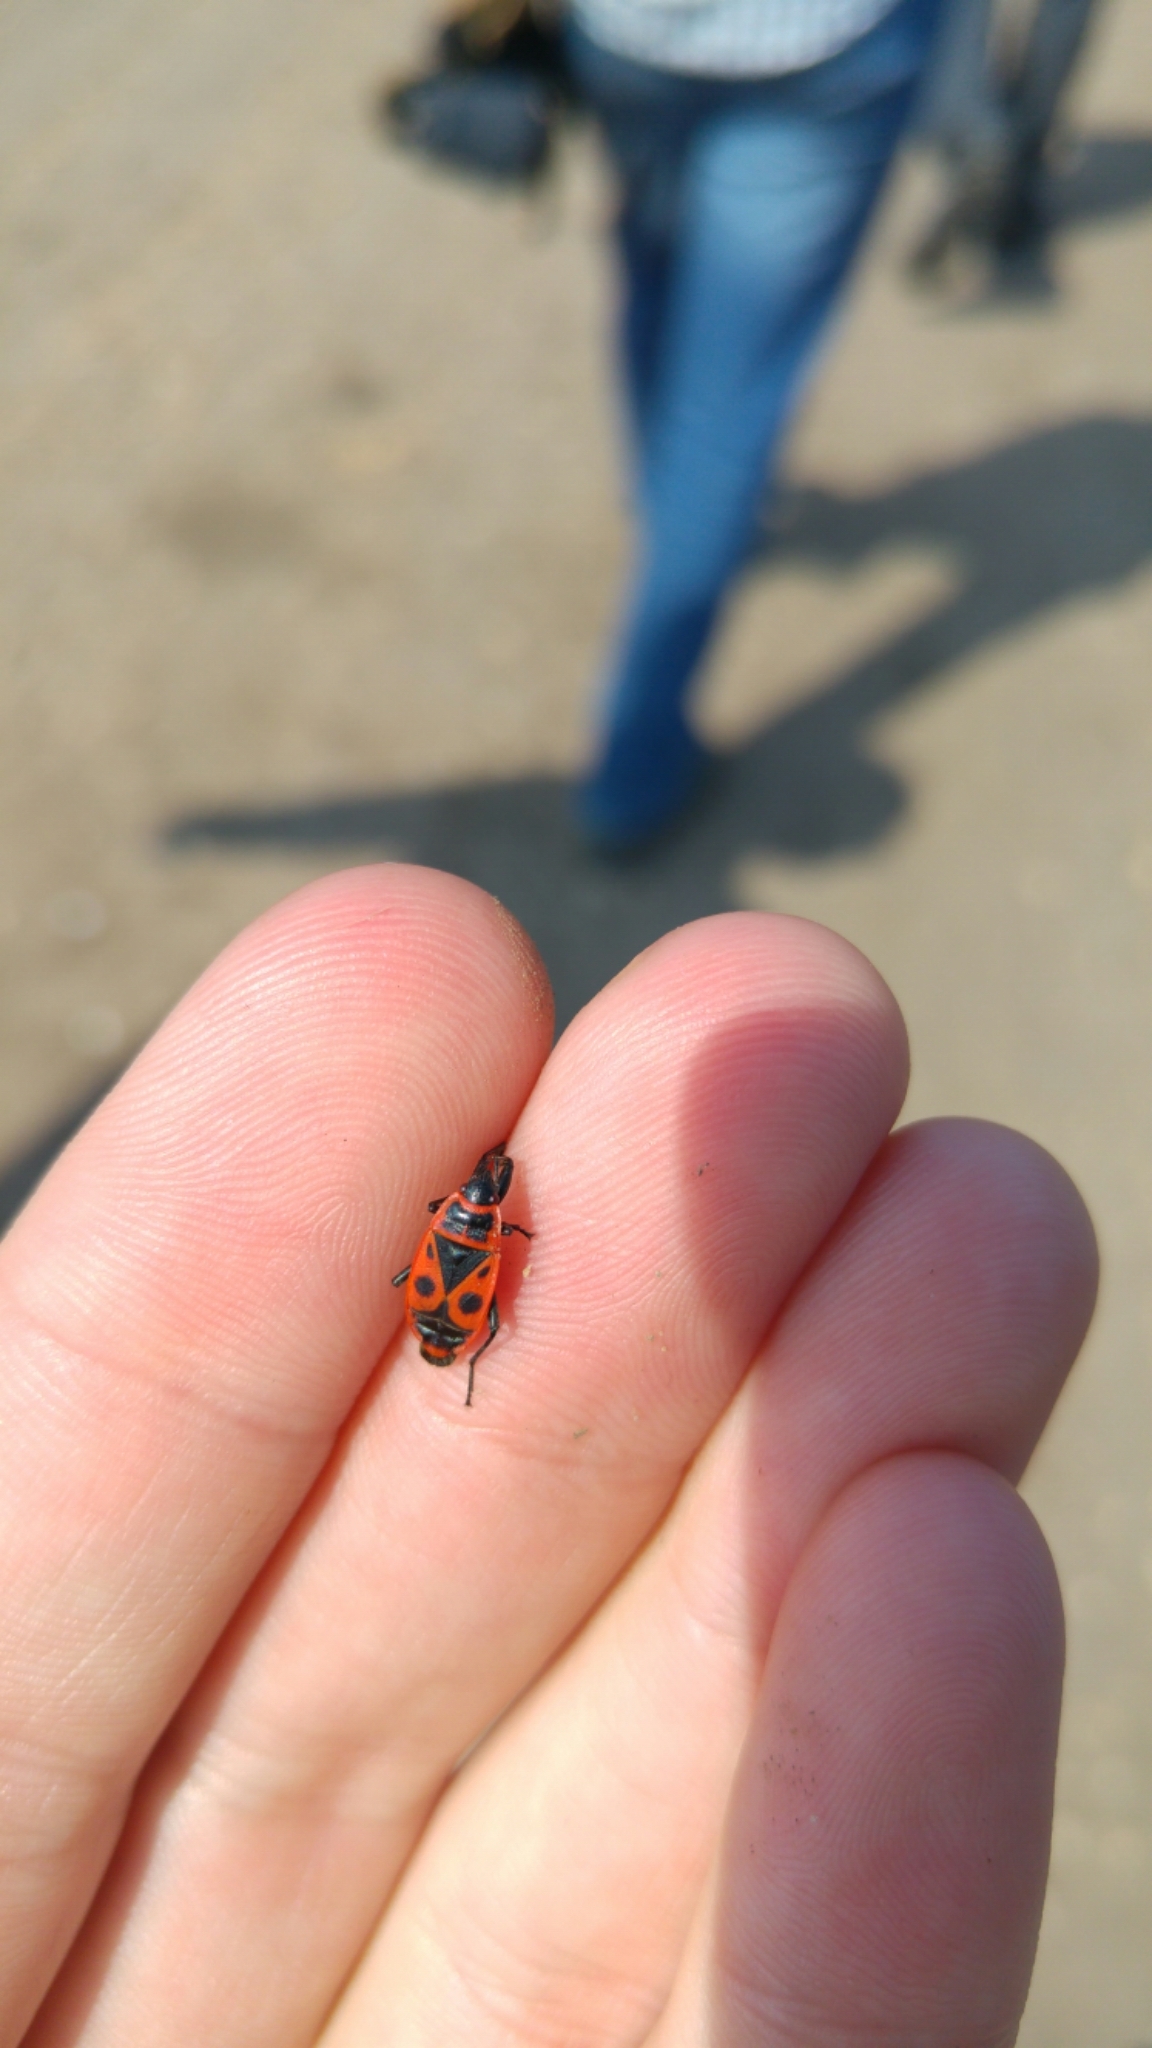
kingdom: Animalia
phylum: Arthropoda
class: Insecta
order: Hemiptera
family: Pyrrhocoridae
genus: Pyrrhocoris
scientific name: Pyrrhocoris apterus
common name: Firebug
